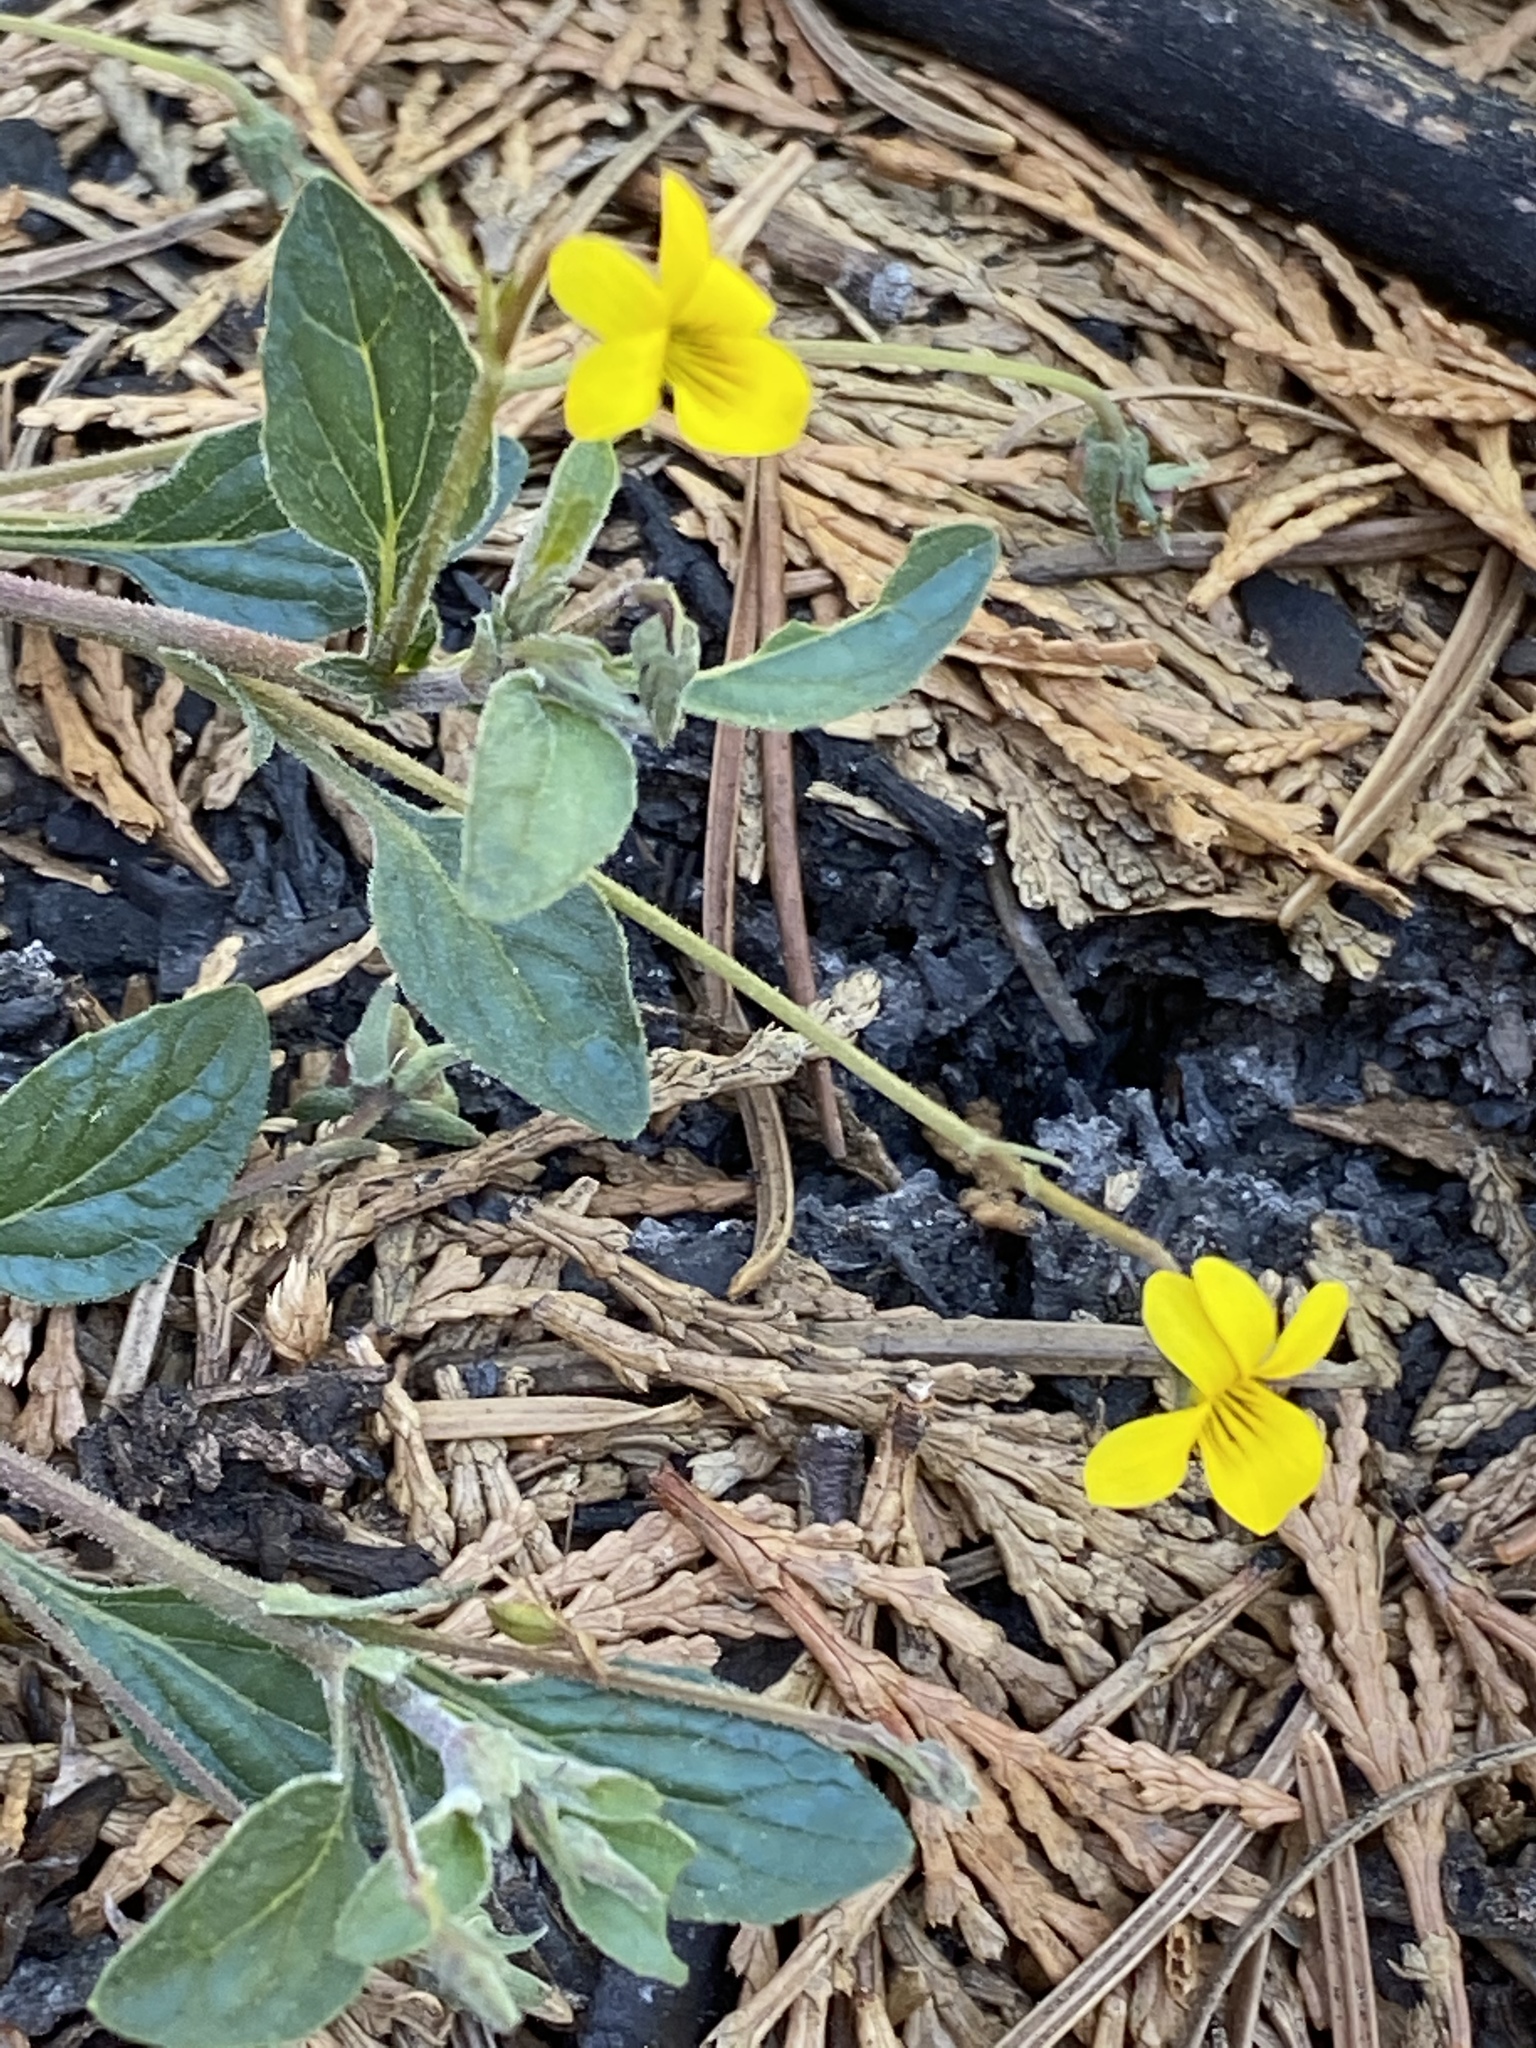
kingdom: Plantae
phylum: Tracheophyta
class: Magnoliopsida
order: Malpighiales
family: Violaceae
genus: Viola
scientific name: Viola purpurea
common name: Pine violet
